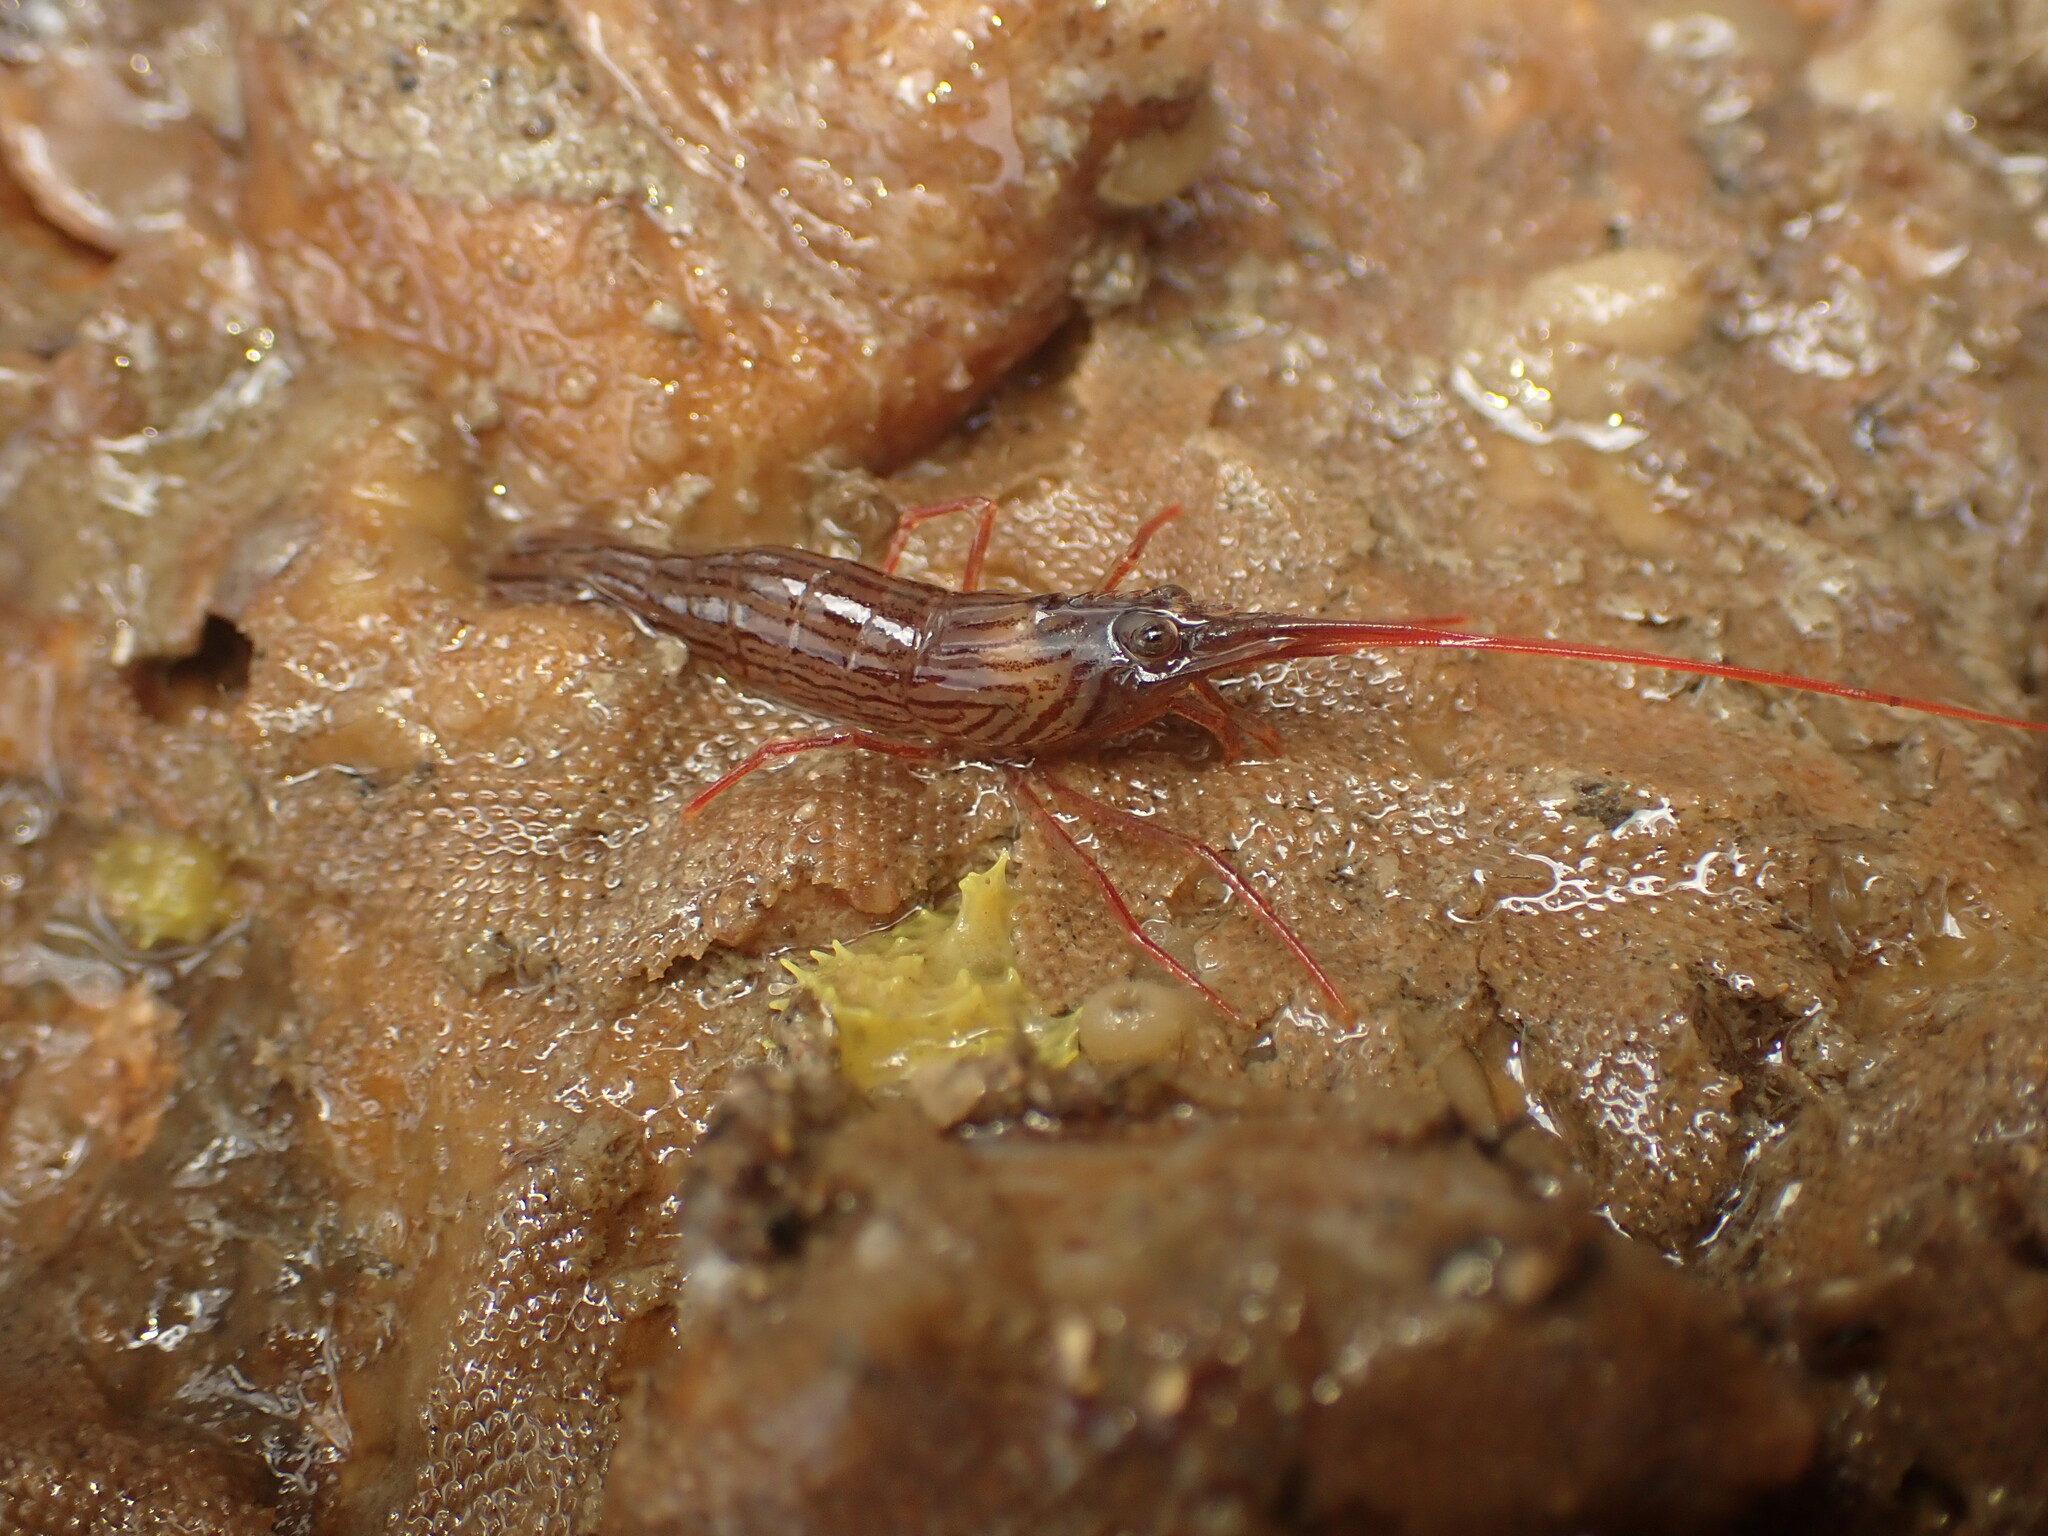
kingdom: Animalia
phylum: Arthropoda
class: Malacostraca
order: Decapoda
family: Lysmatidae
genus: Lysmata
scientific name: Lysmata vittata
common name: Indian lined shrimp
